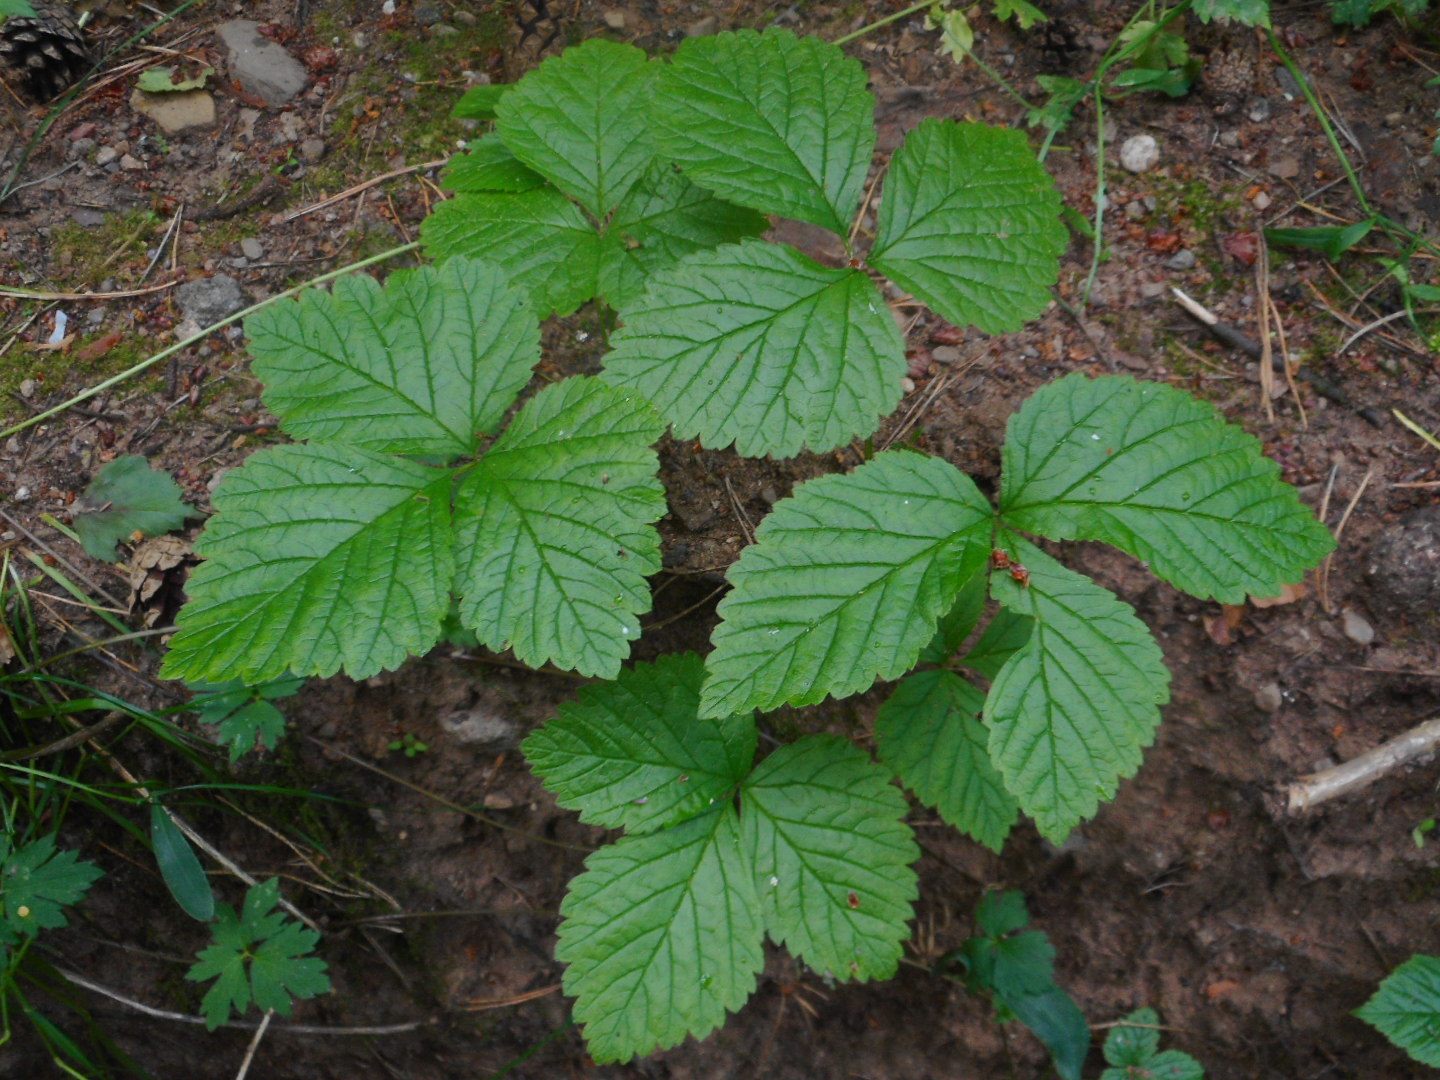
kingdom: Plantae
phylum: Tracheophyta
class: Magnoliopsida
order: Rosales
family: Rosaceae
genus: Rubus
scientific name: Rubus saxatilis
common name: Stone bramble
